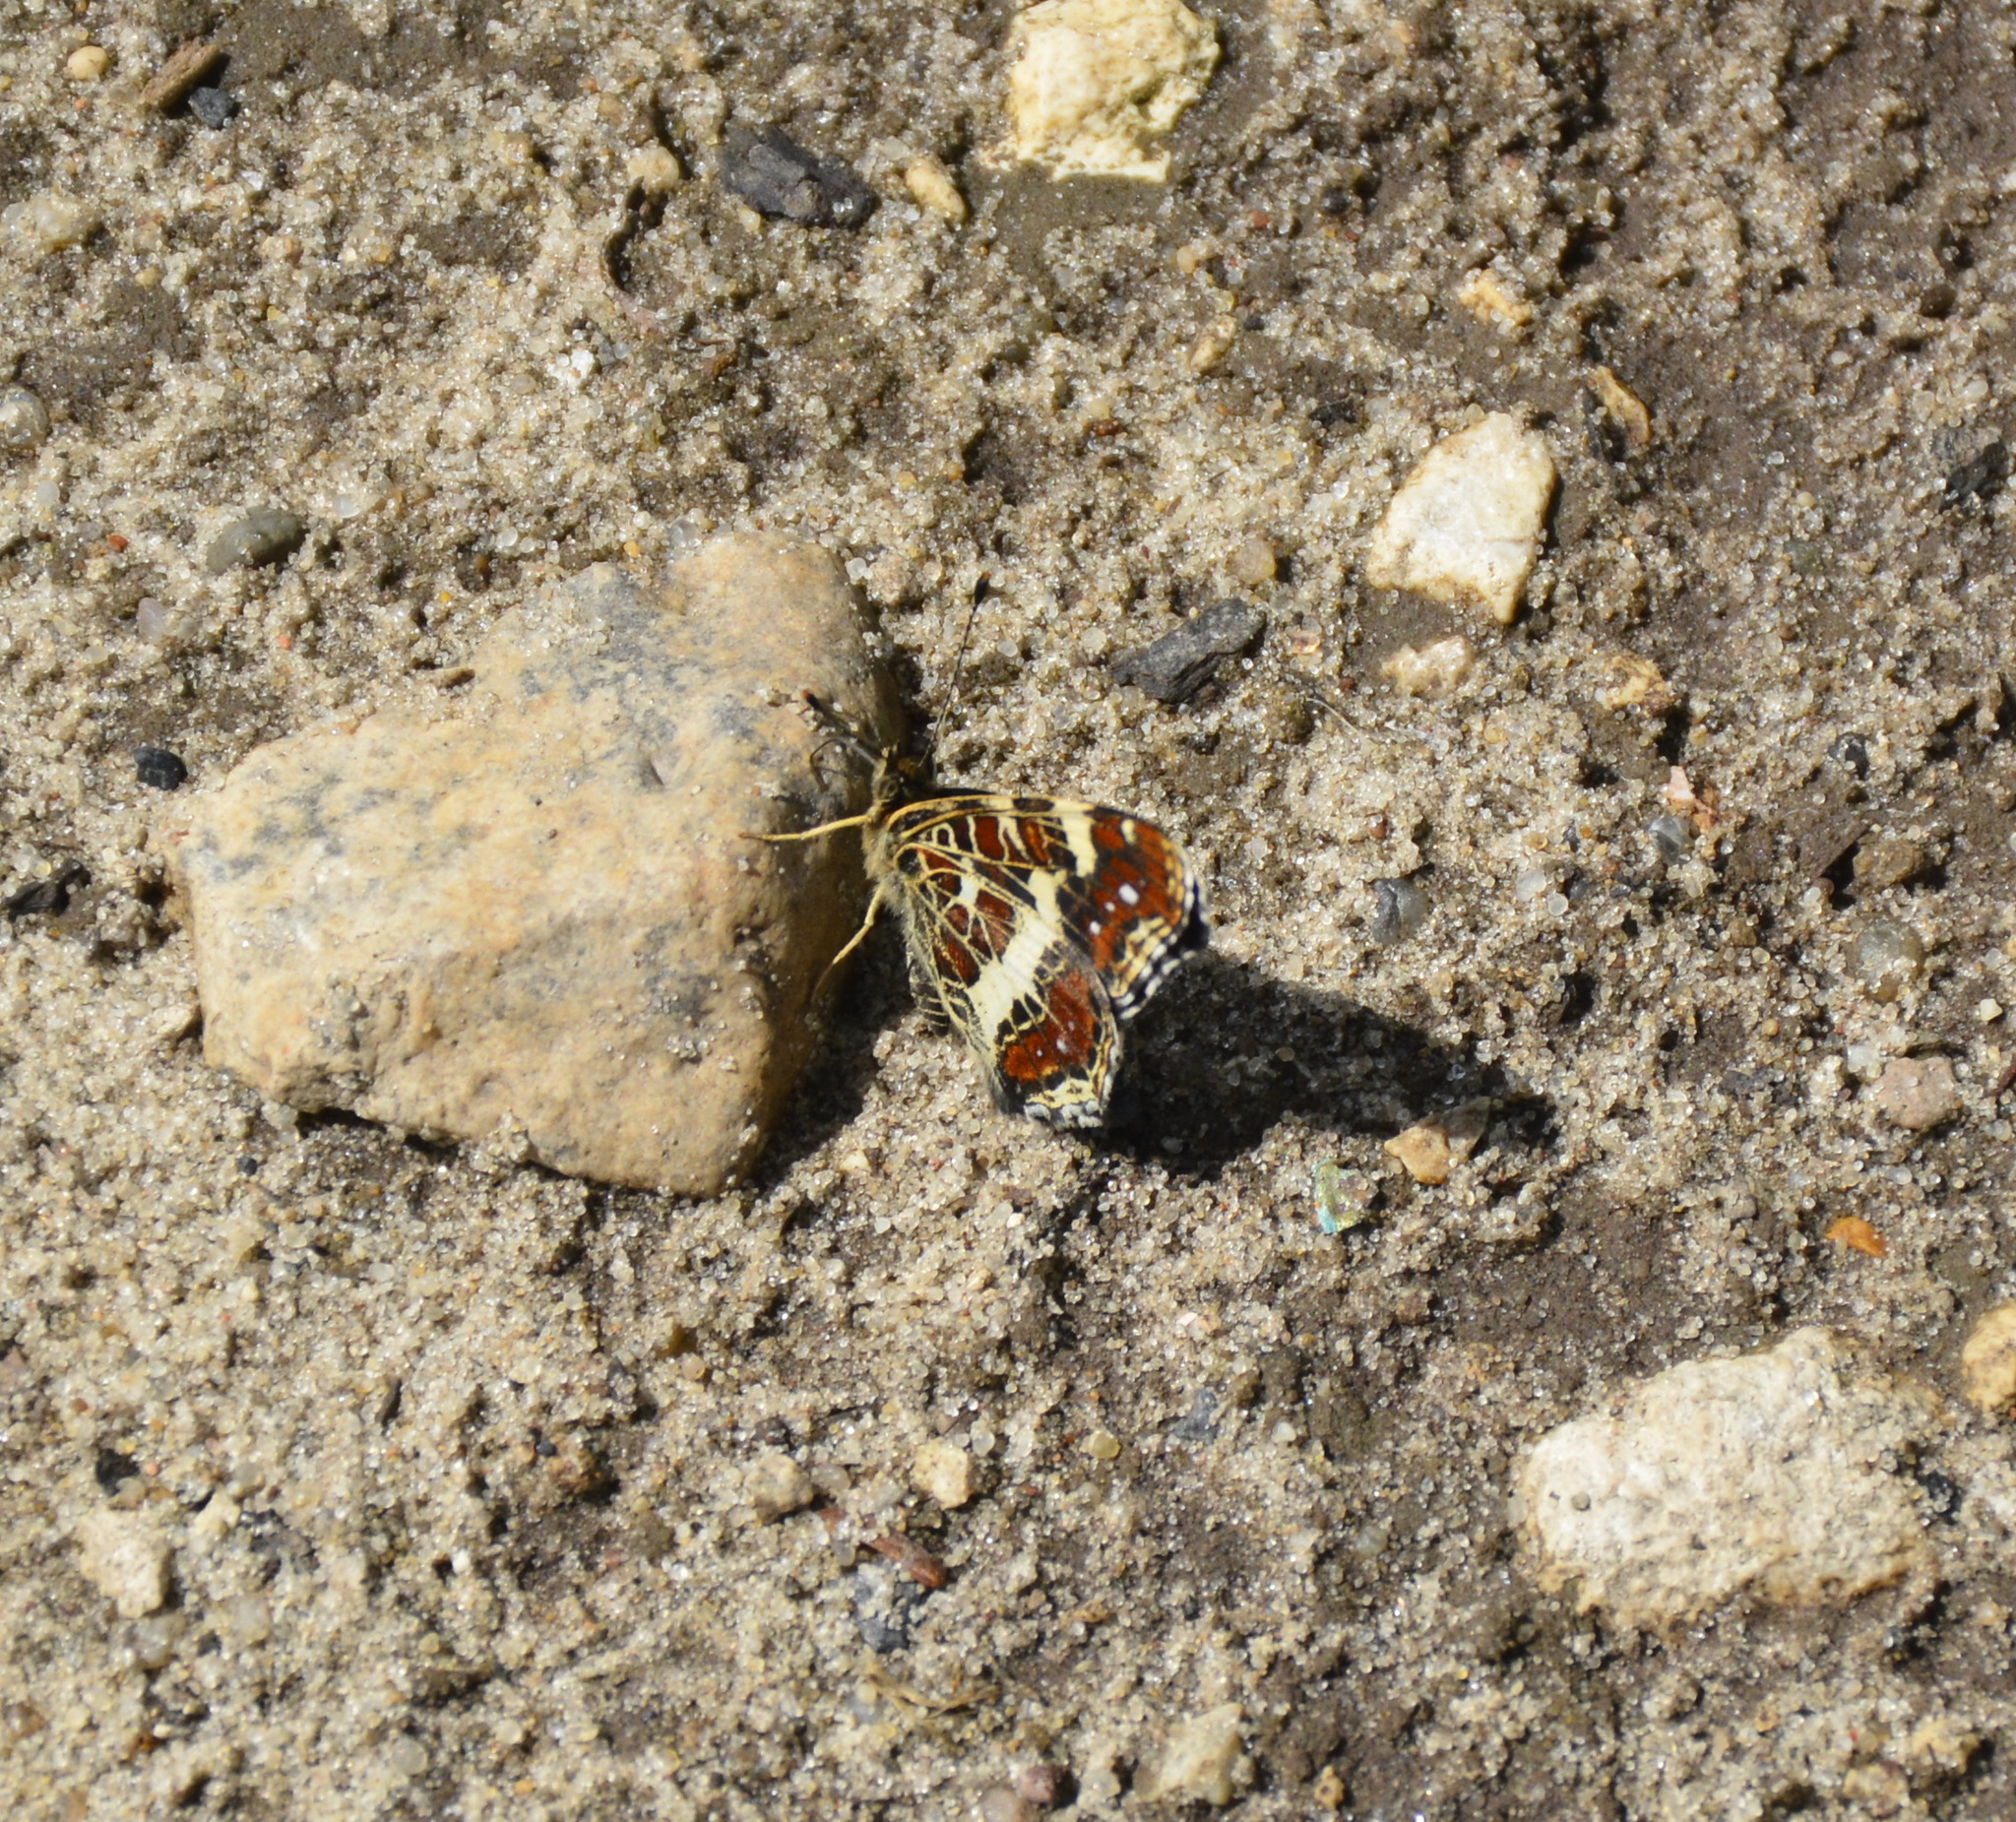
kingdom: Animalia
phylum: Arthropoda
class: Insecta
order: Lepidoptera
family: Nymphalidae
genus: Araschnia
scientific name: Araschnia levana
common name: Map butterfly
